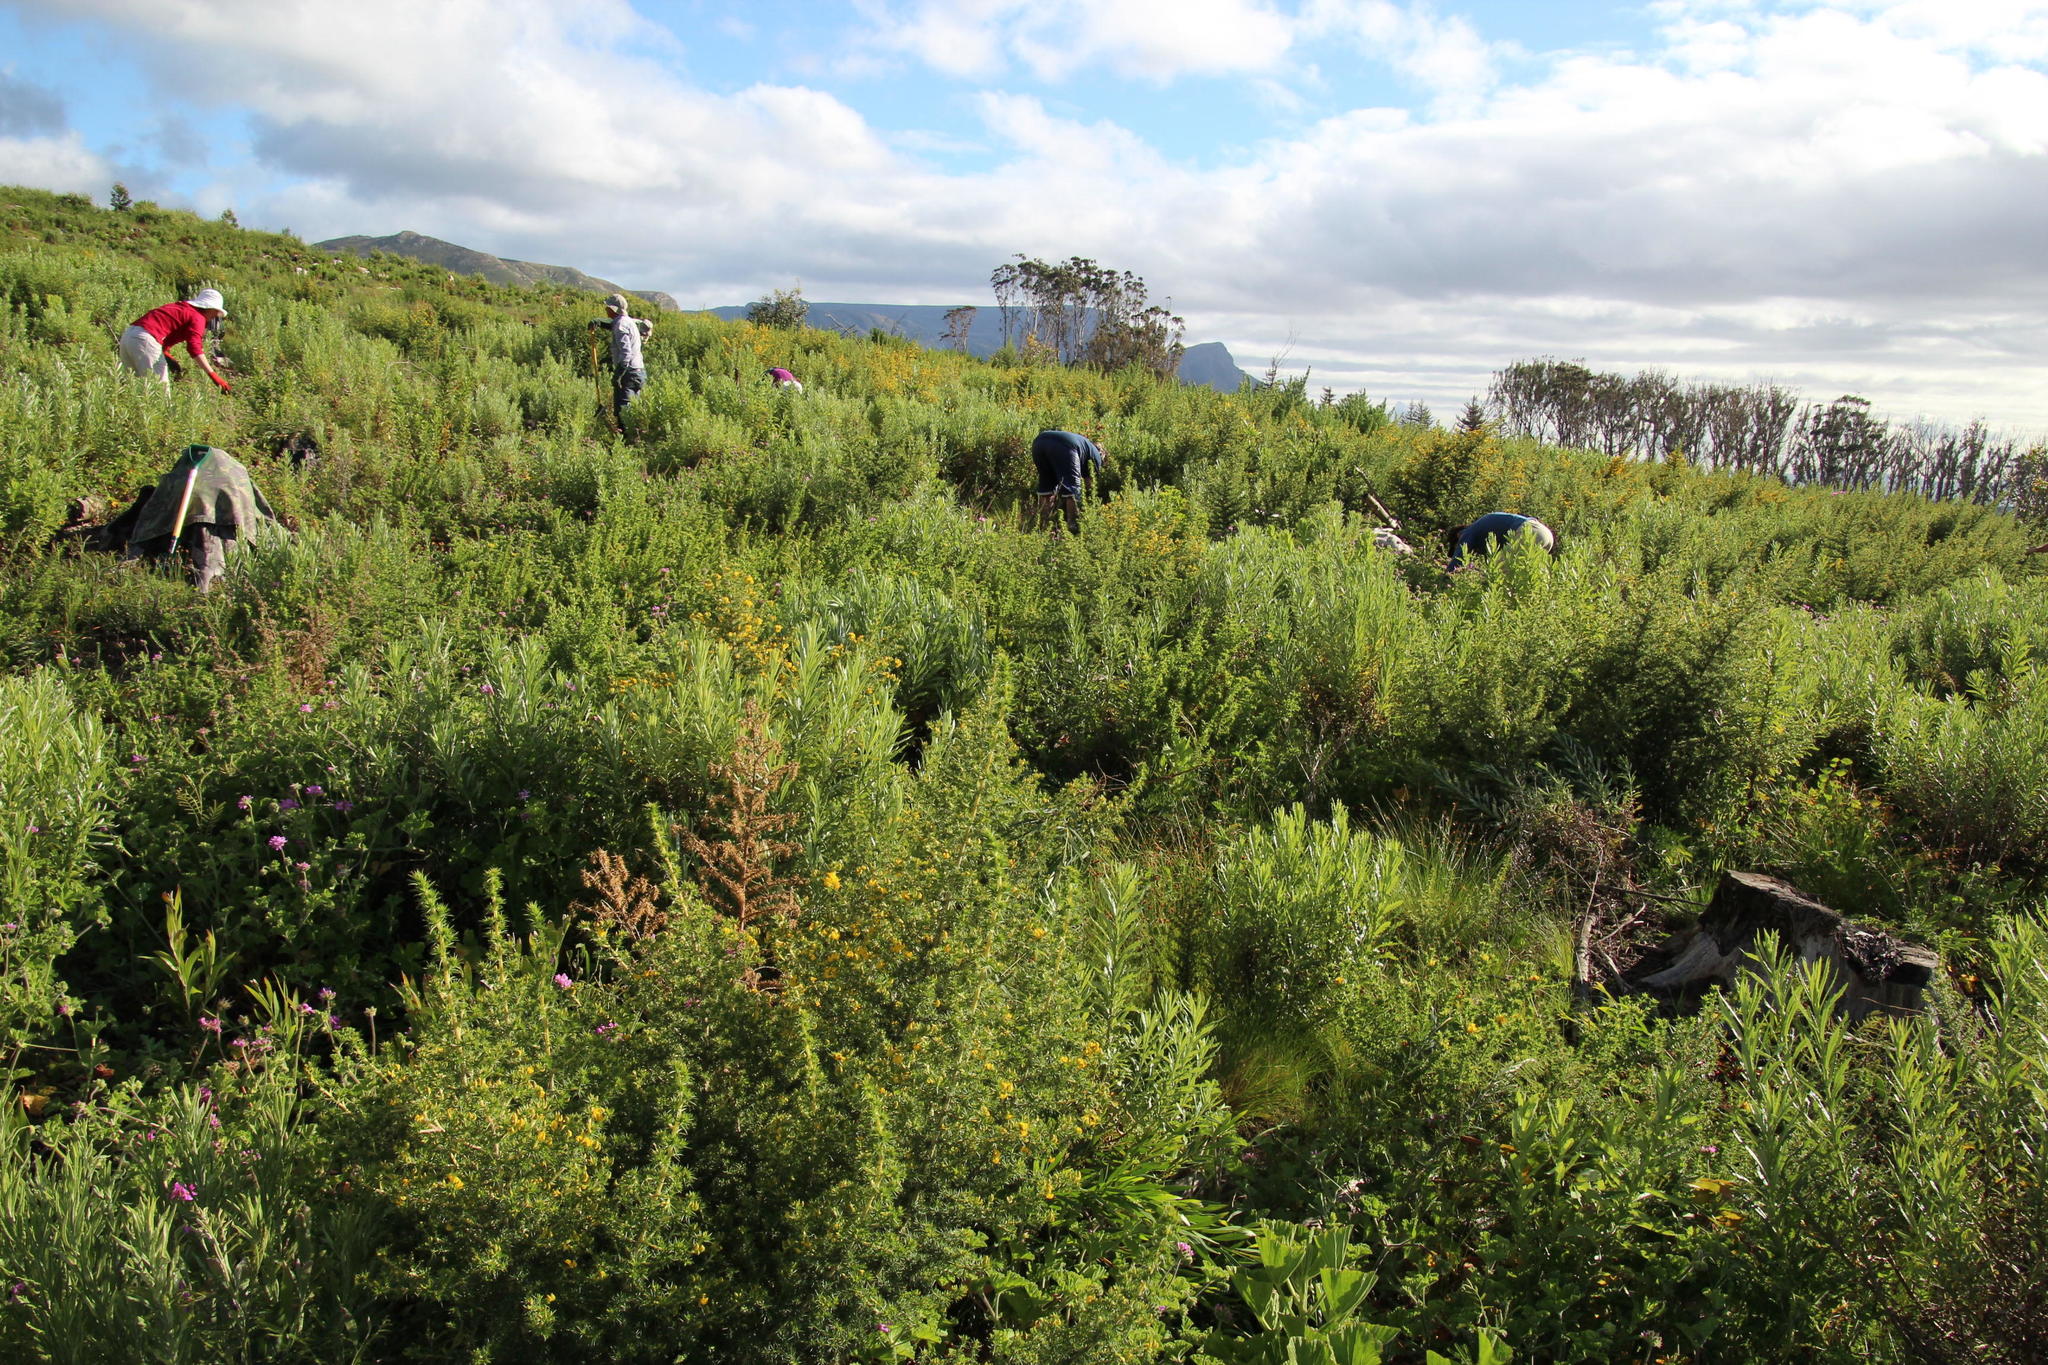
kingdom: Plantae
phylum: Tracheophyta
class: Magnoliopsida
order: Fabales
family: Fabaceae
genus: Aspalathus
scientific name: Aspalathus astroites
